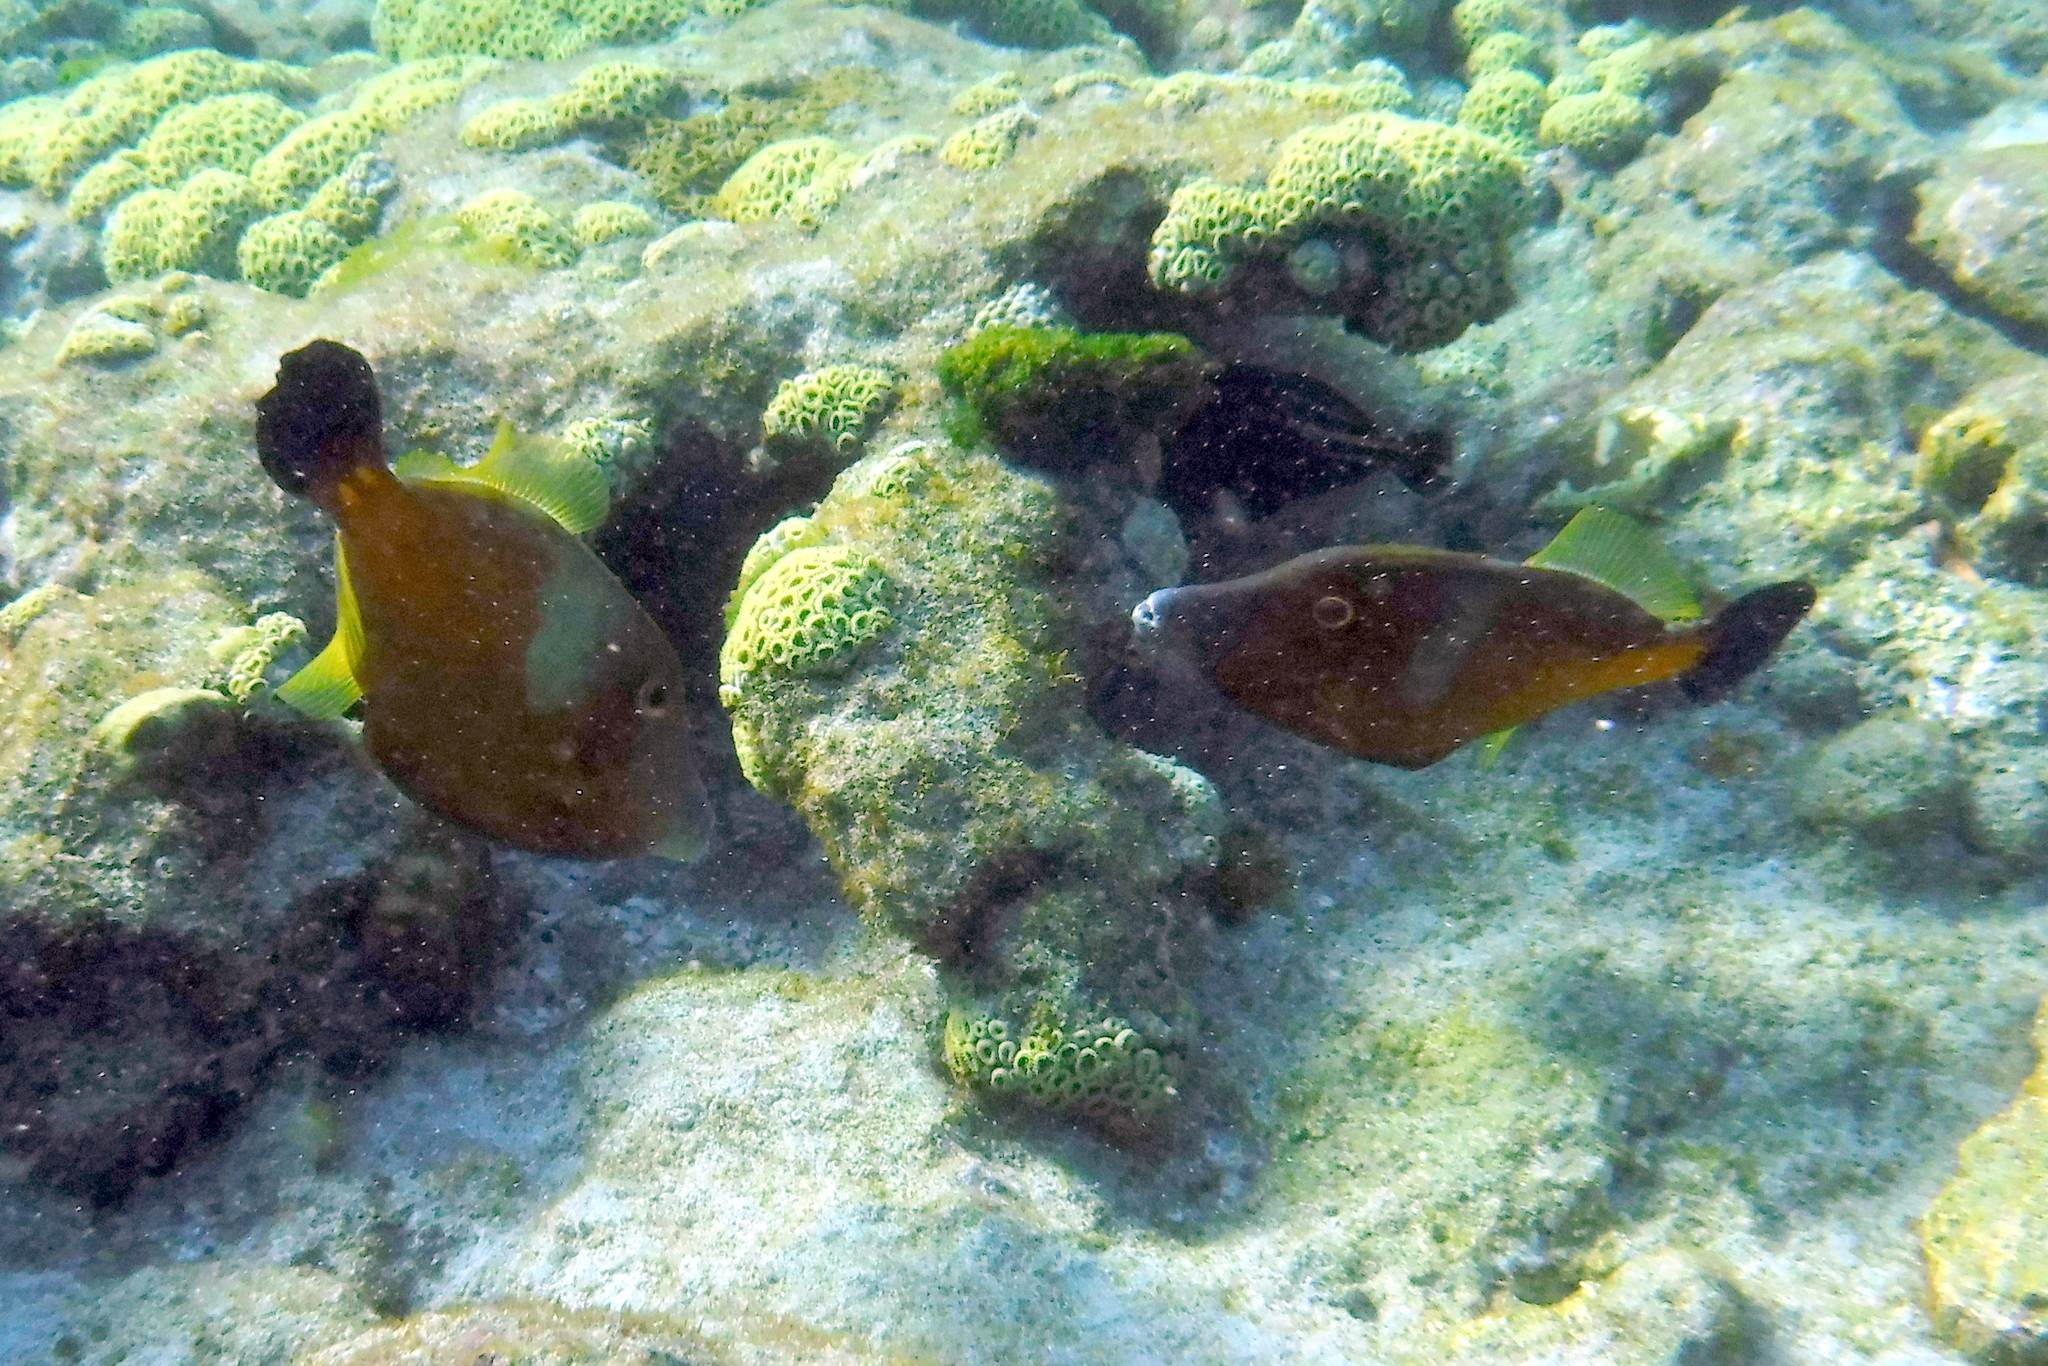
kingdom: Animalia
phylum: Chordata
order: Tetraodontiformes
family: Monacanthidae
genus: Cantherhines
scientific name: Cantherhines macrocerus
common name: Whitespotted filefish
